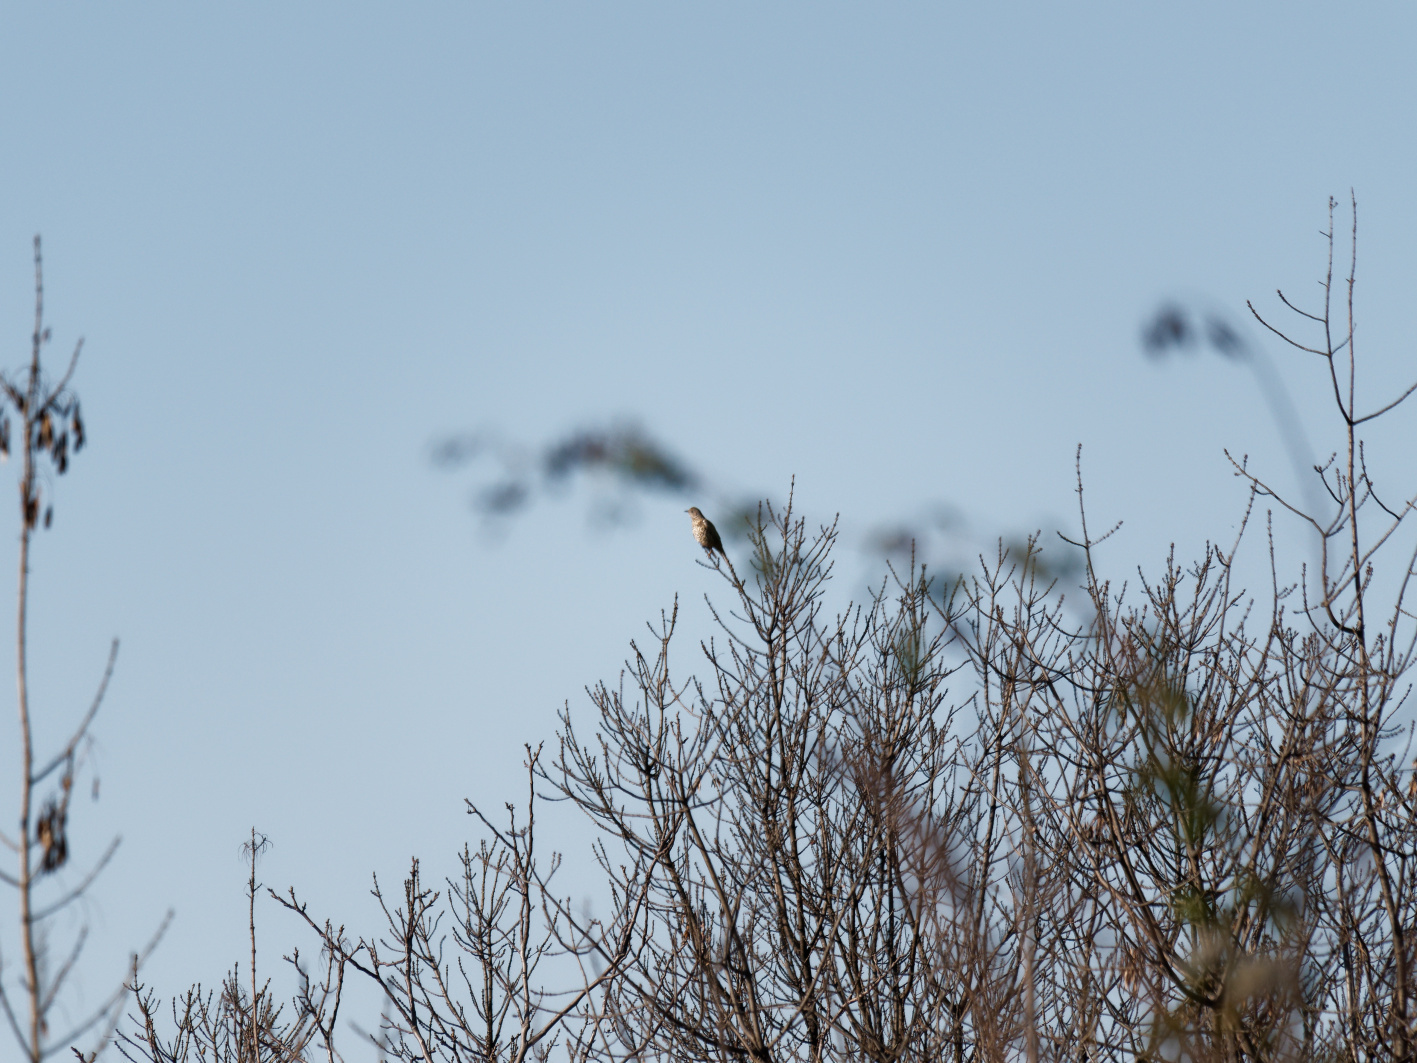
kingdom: Animalia
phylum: Chordata
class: Aves
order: Passeriformes
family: Turdidae
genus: Turdus
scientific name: Turdus viscivorus
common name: Mistle thrush
